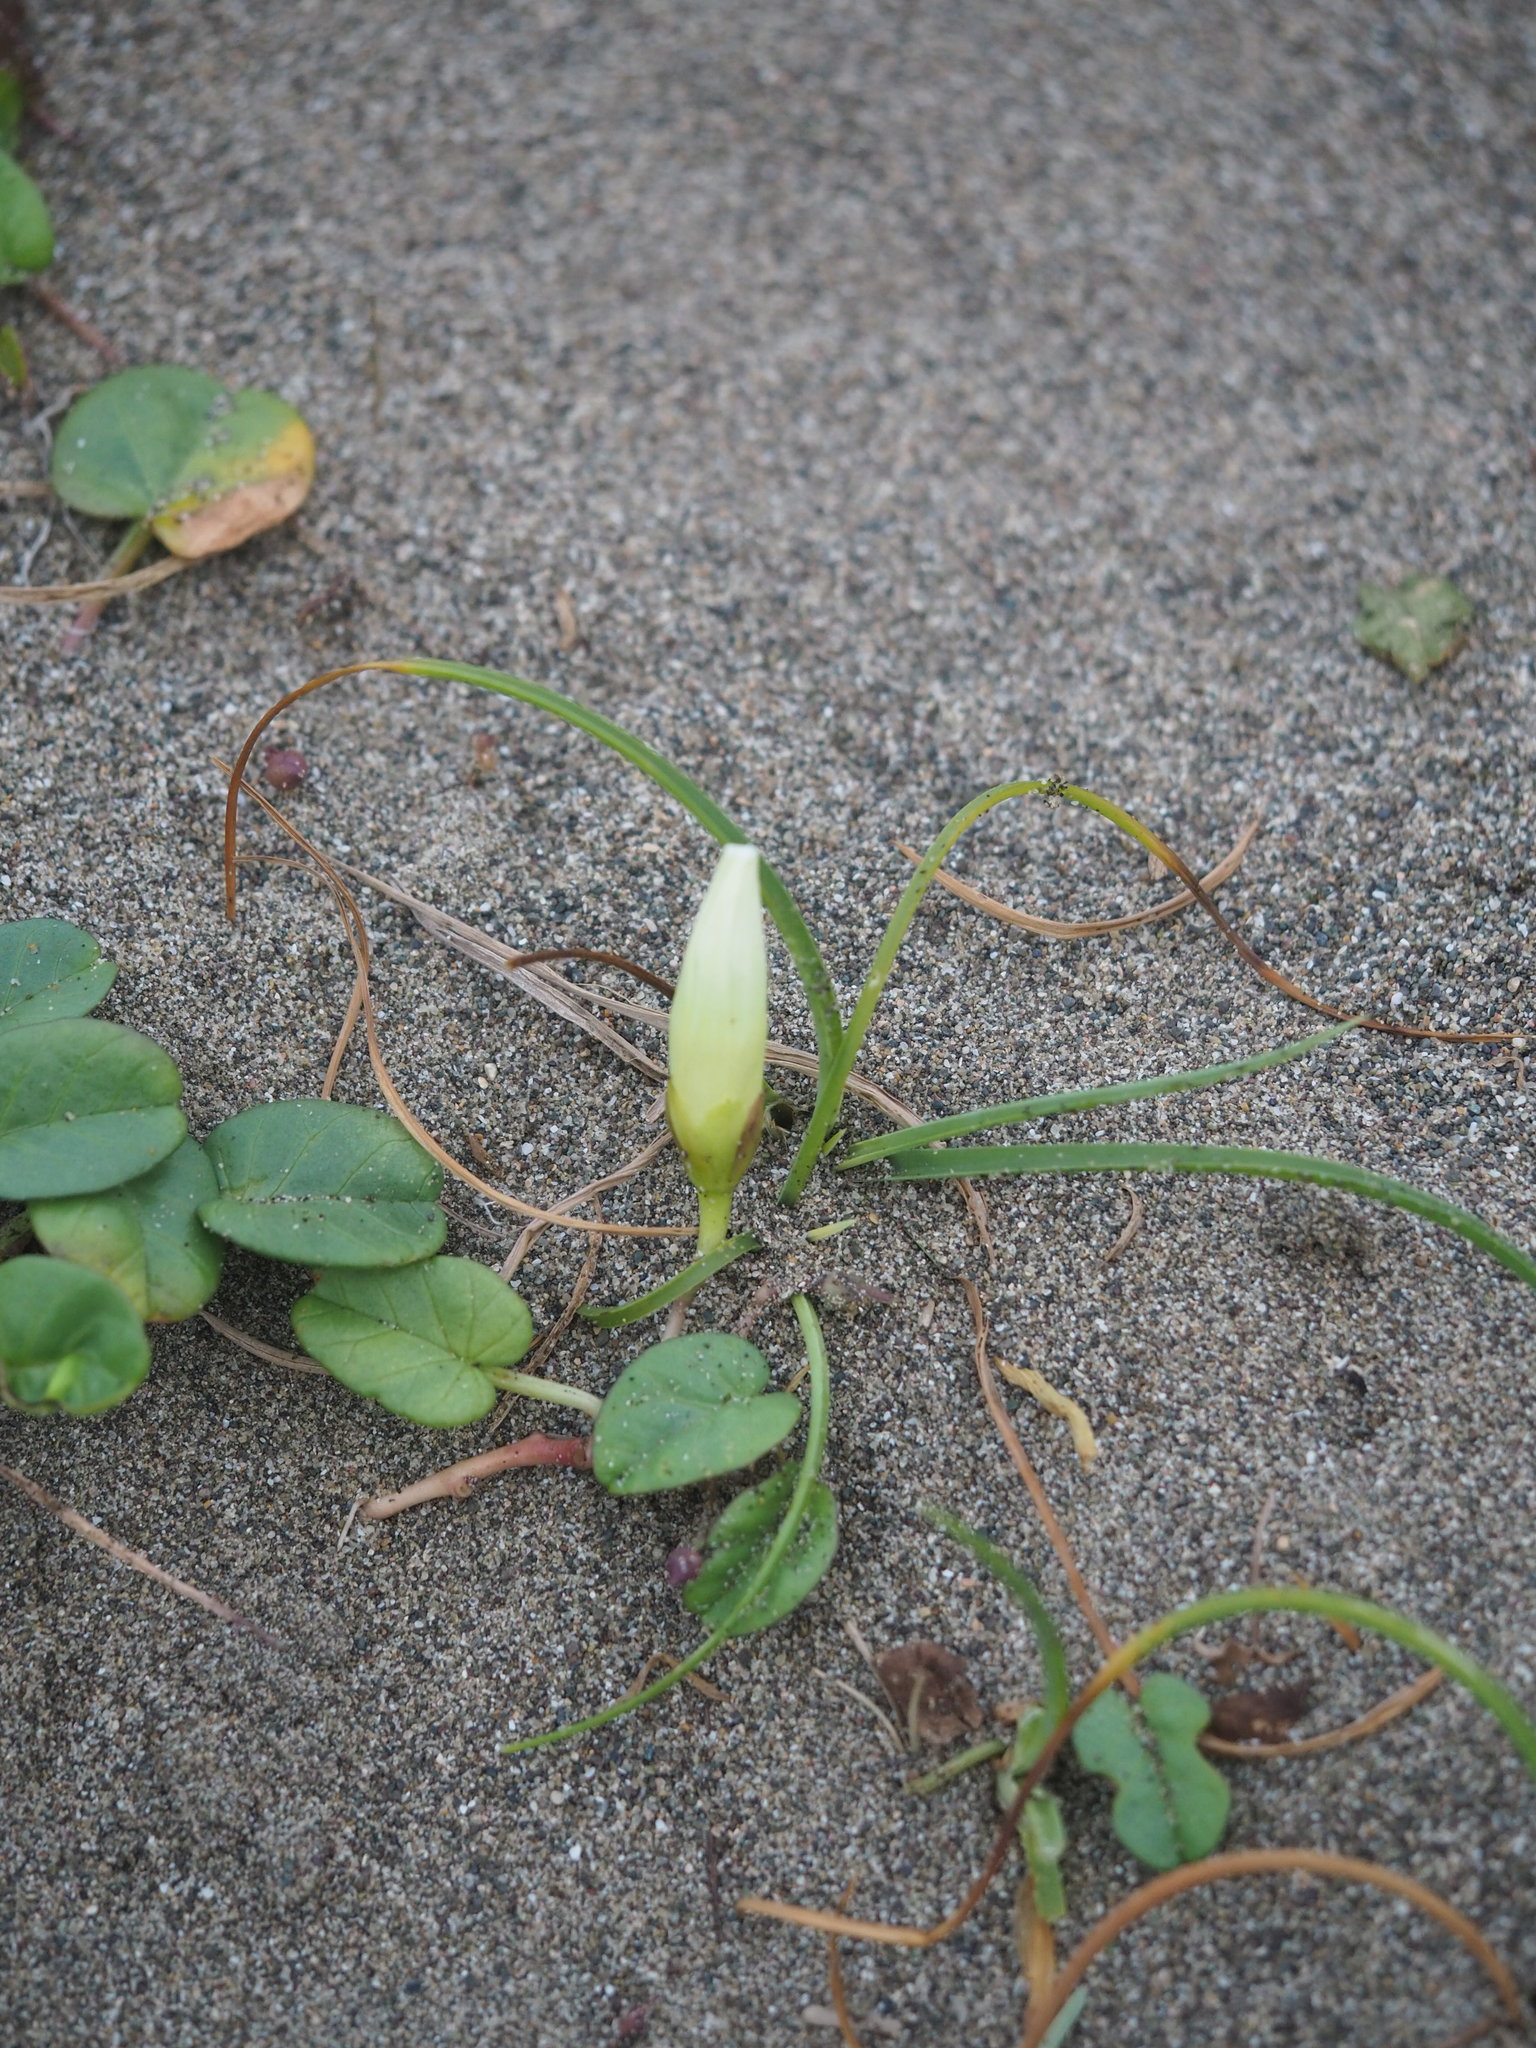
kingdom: Plantae
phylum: Tracheophyta
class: Magnoliopsida
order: Solanales
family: Convolvulaceae
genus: Ipomoea
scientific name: Ipomoea imperati
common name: Fiddle-leaf morning-glory
